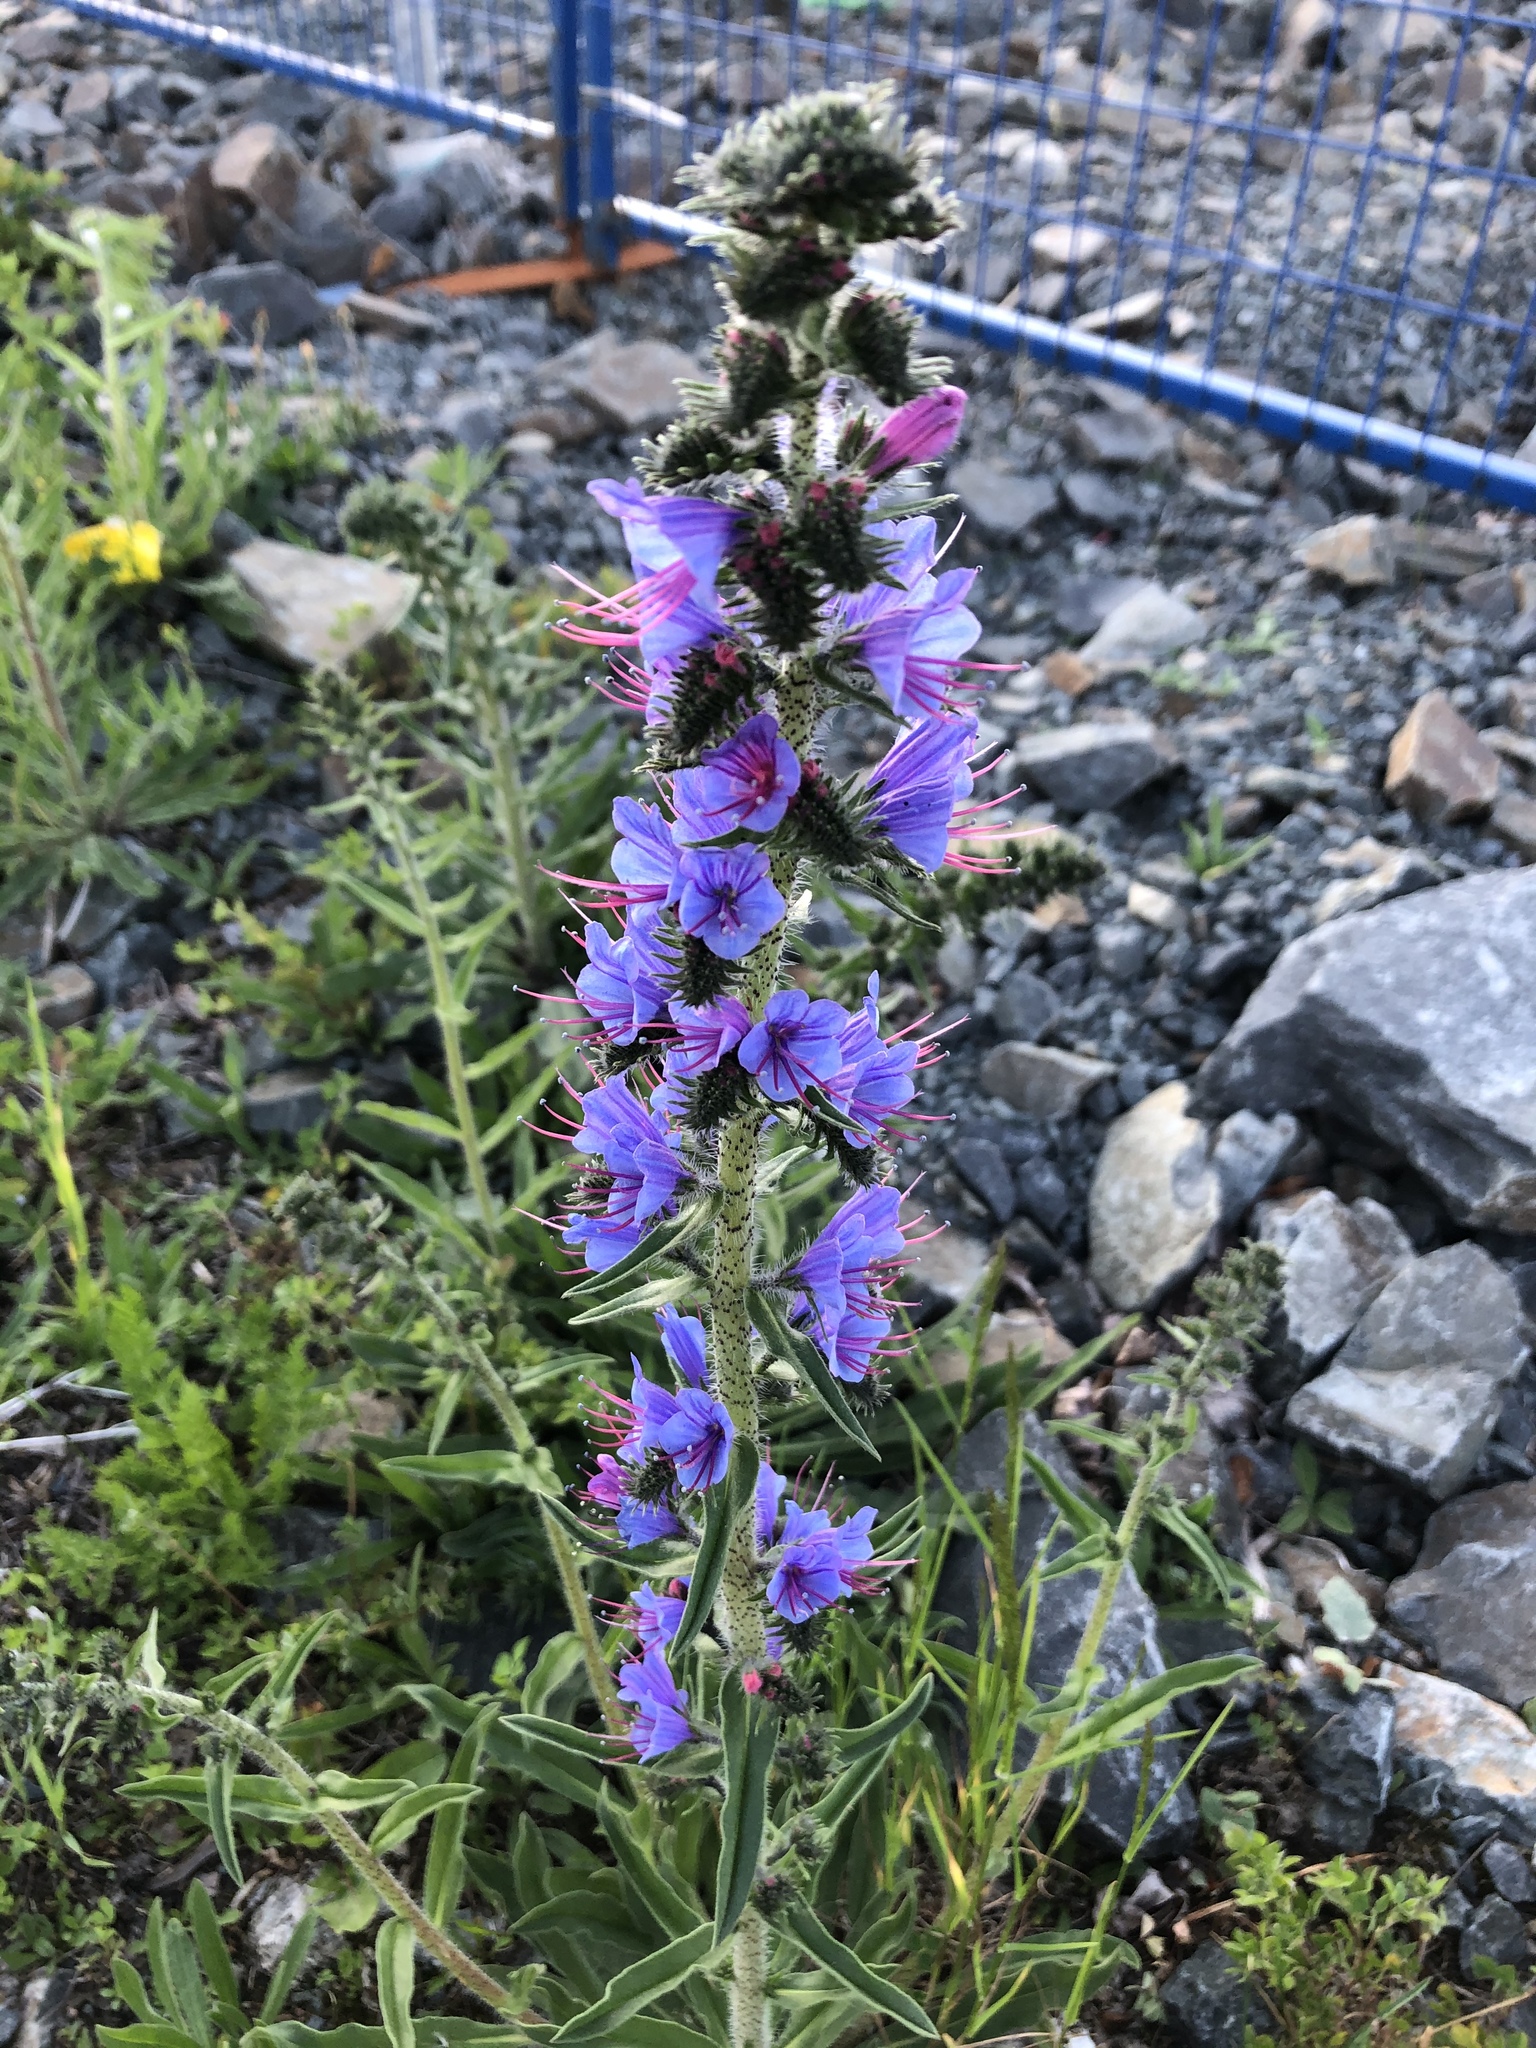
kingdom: Plantae
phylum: Tracheophyta
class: Magnoliopsida
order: Boraginales
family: Boraginaceae
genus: Echium
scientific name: Echium vulgare
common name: Common viper's bugloss
